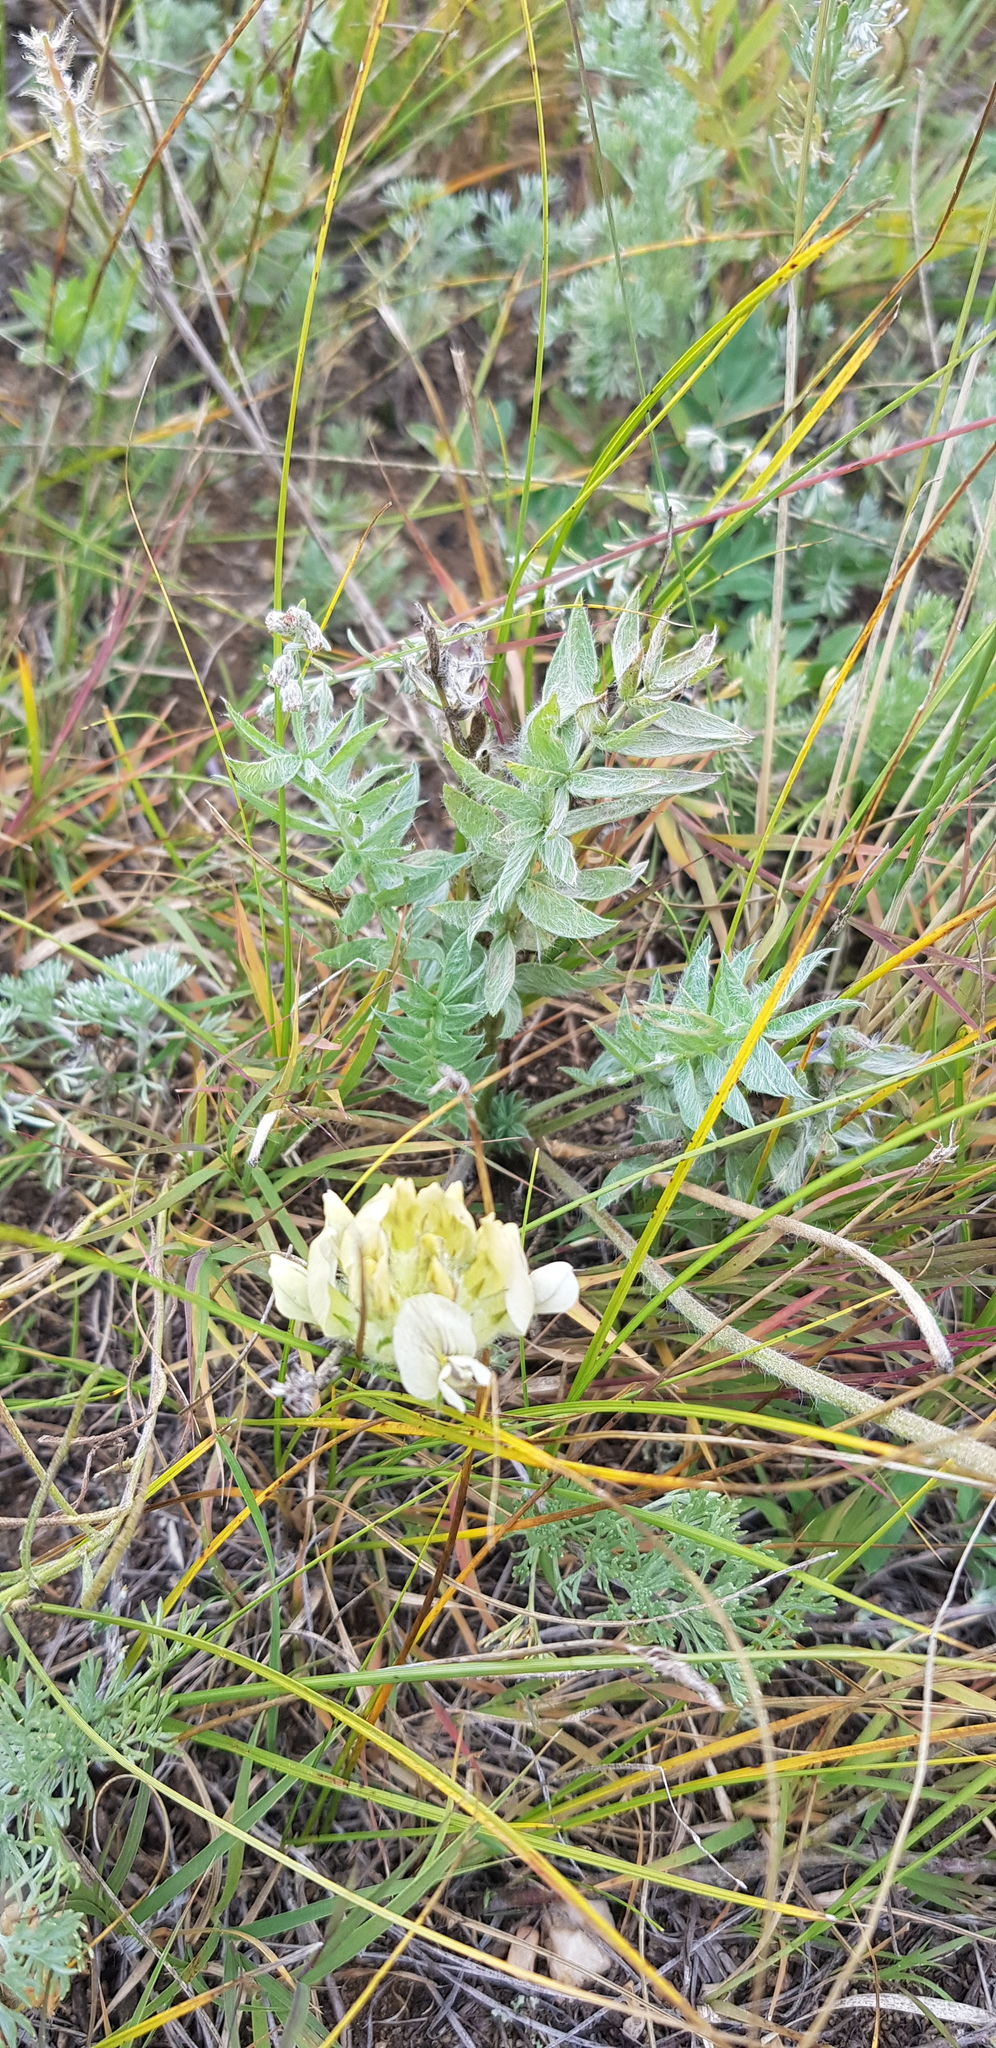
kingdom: Plantae
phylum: Tracheophyta
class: Magnoliopsida
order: Fabales
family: Fabaceae
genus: Oxytropis
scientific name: Oxytropis oxyphylla
